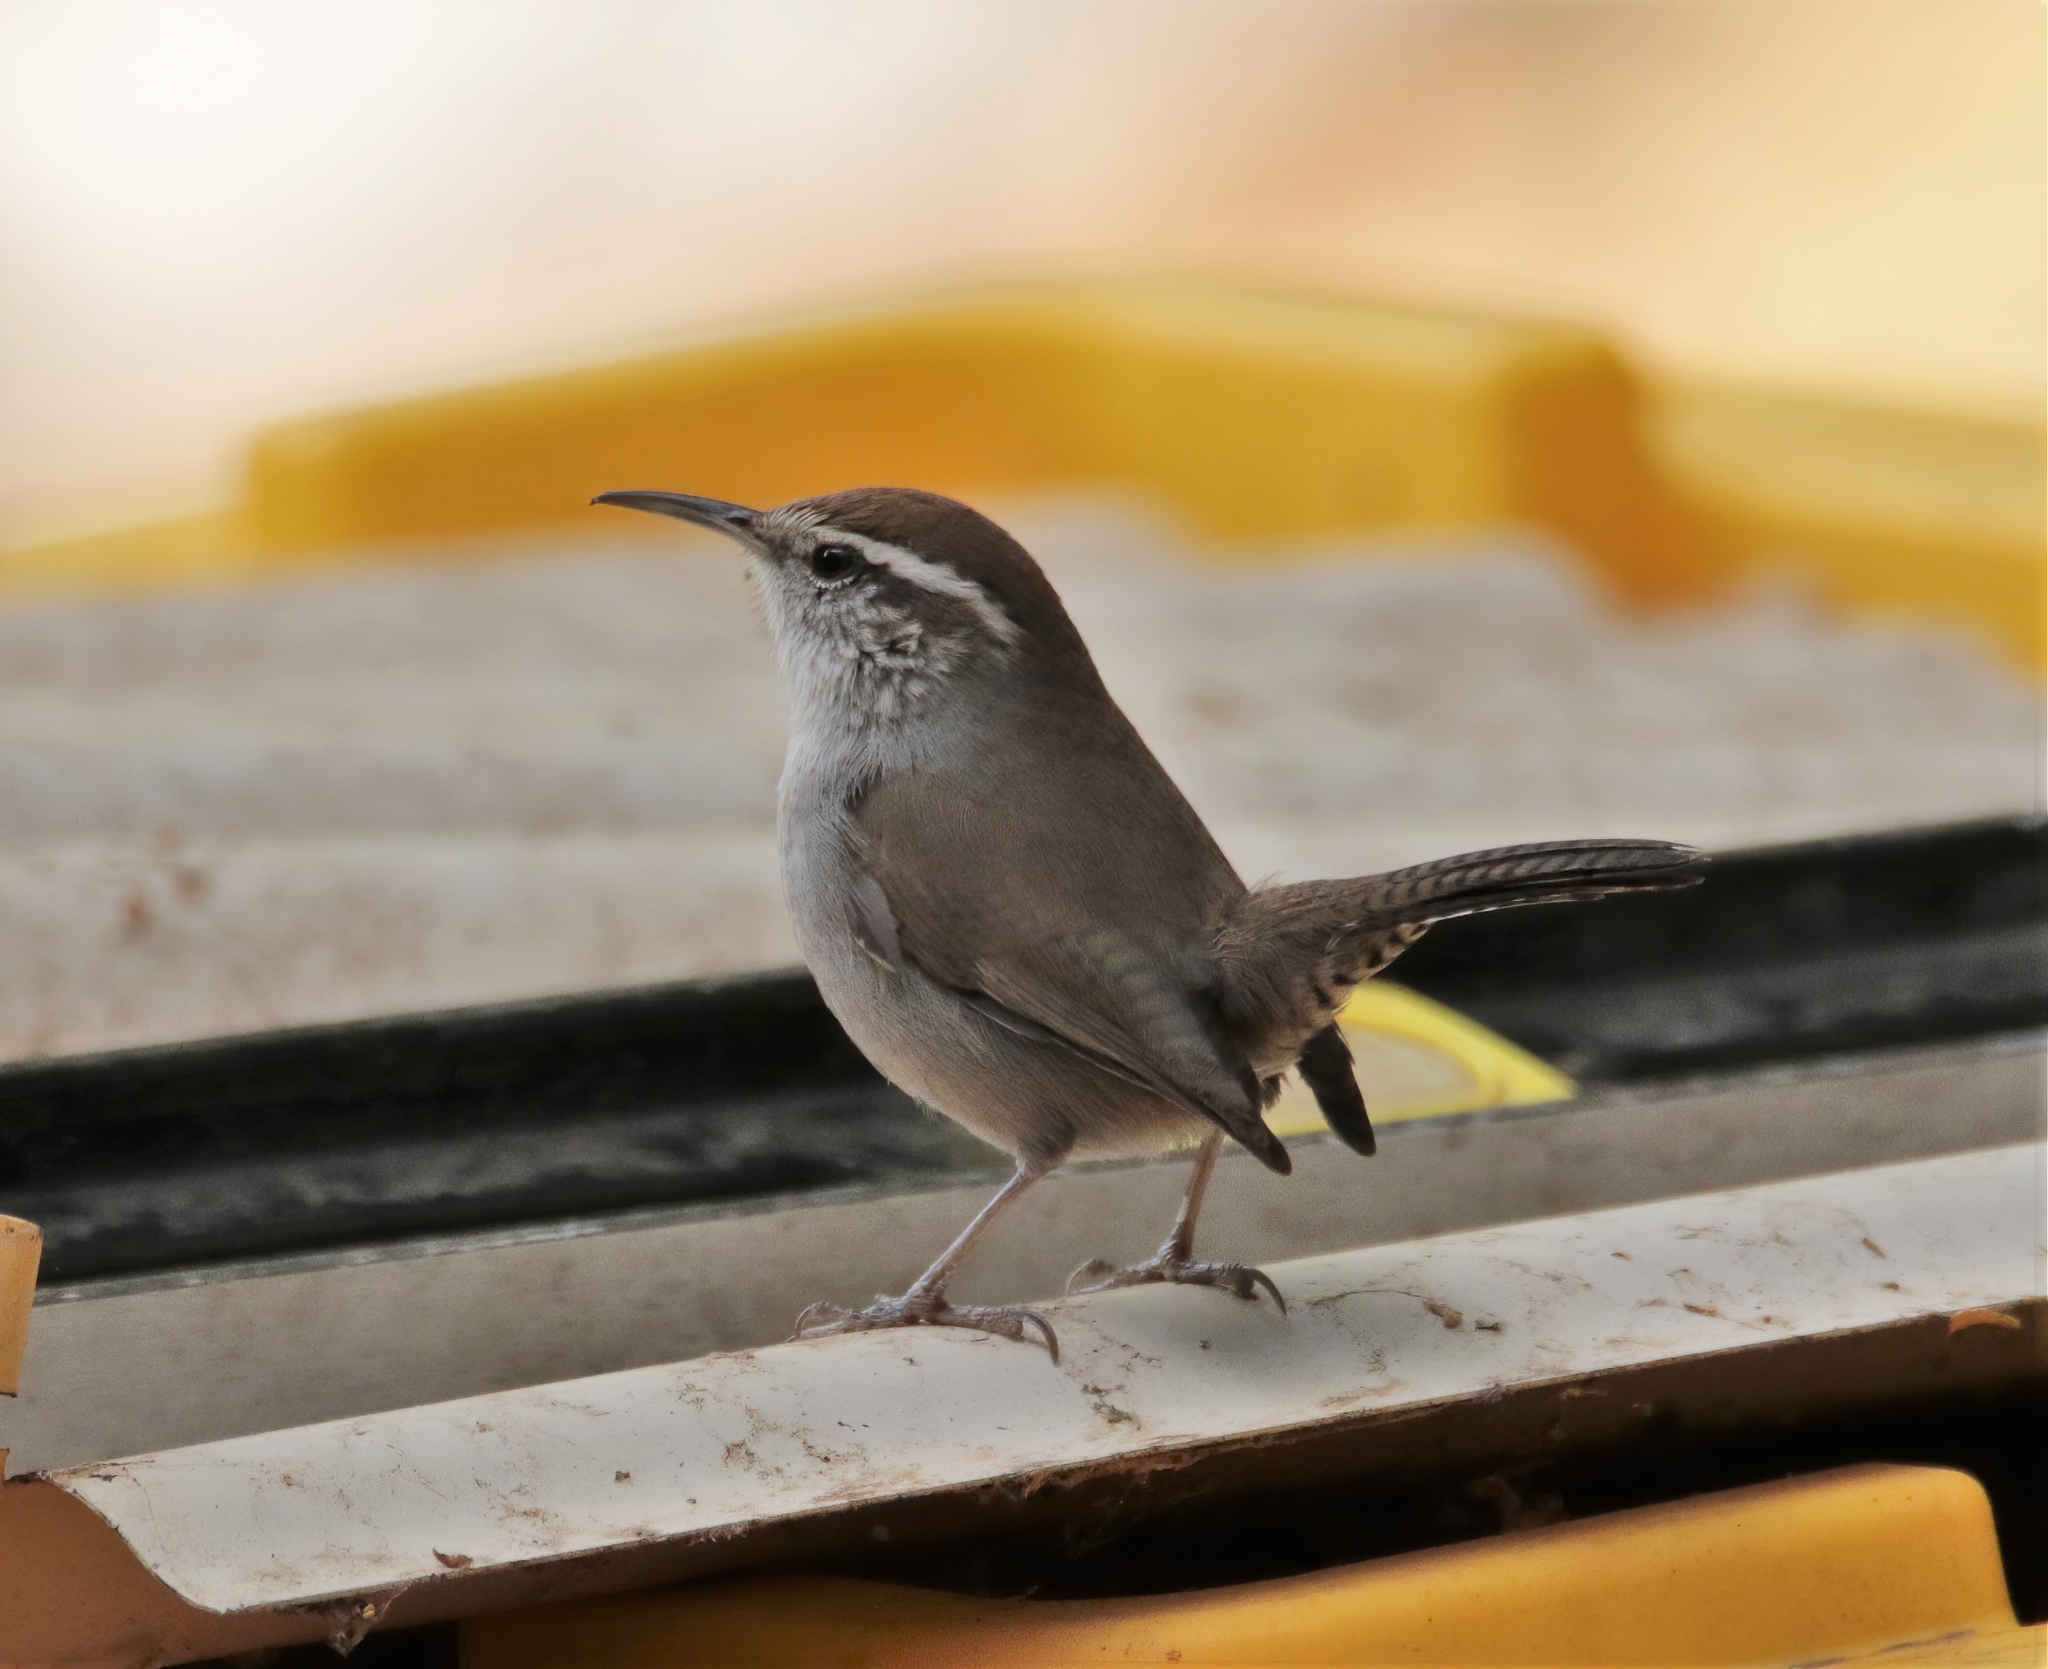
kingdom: Animalia
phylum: Chordata
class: Aves
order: Passeriformes
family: Troglodytidae
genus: Thryomanes
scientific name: Thryomanes bewickii
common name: Bewick's wren
